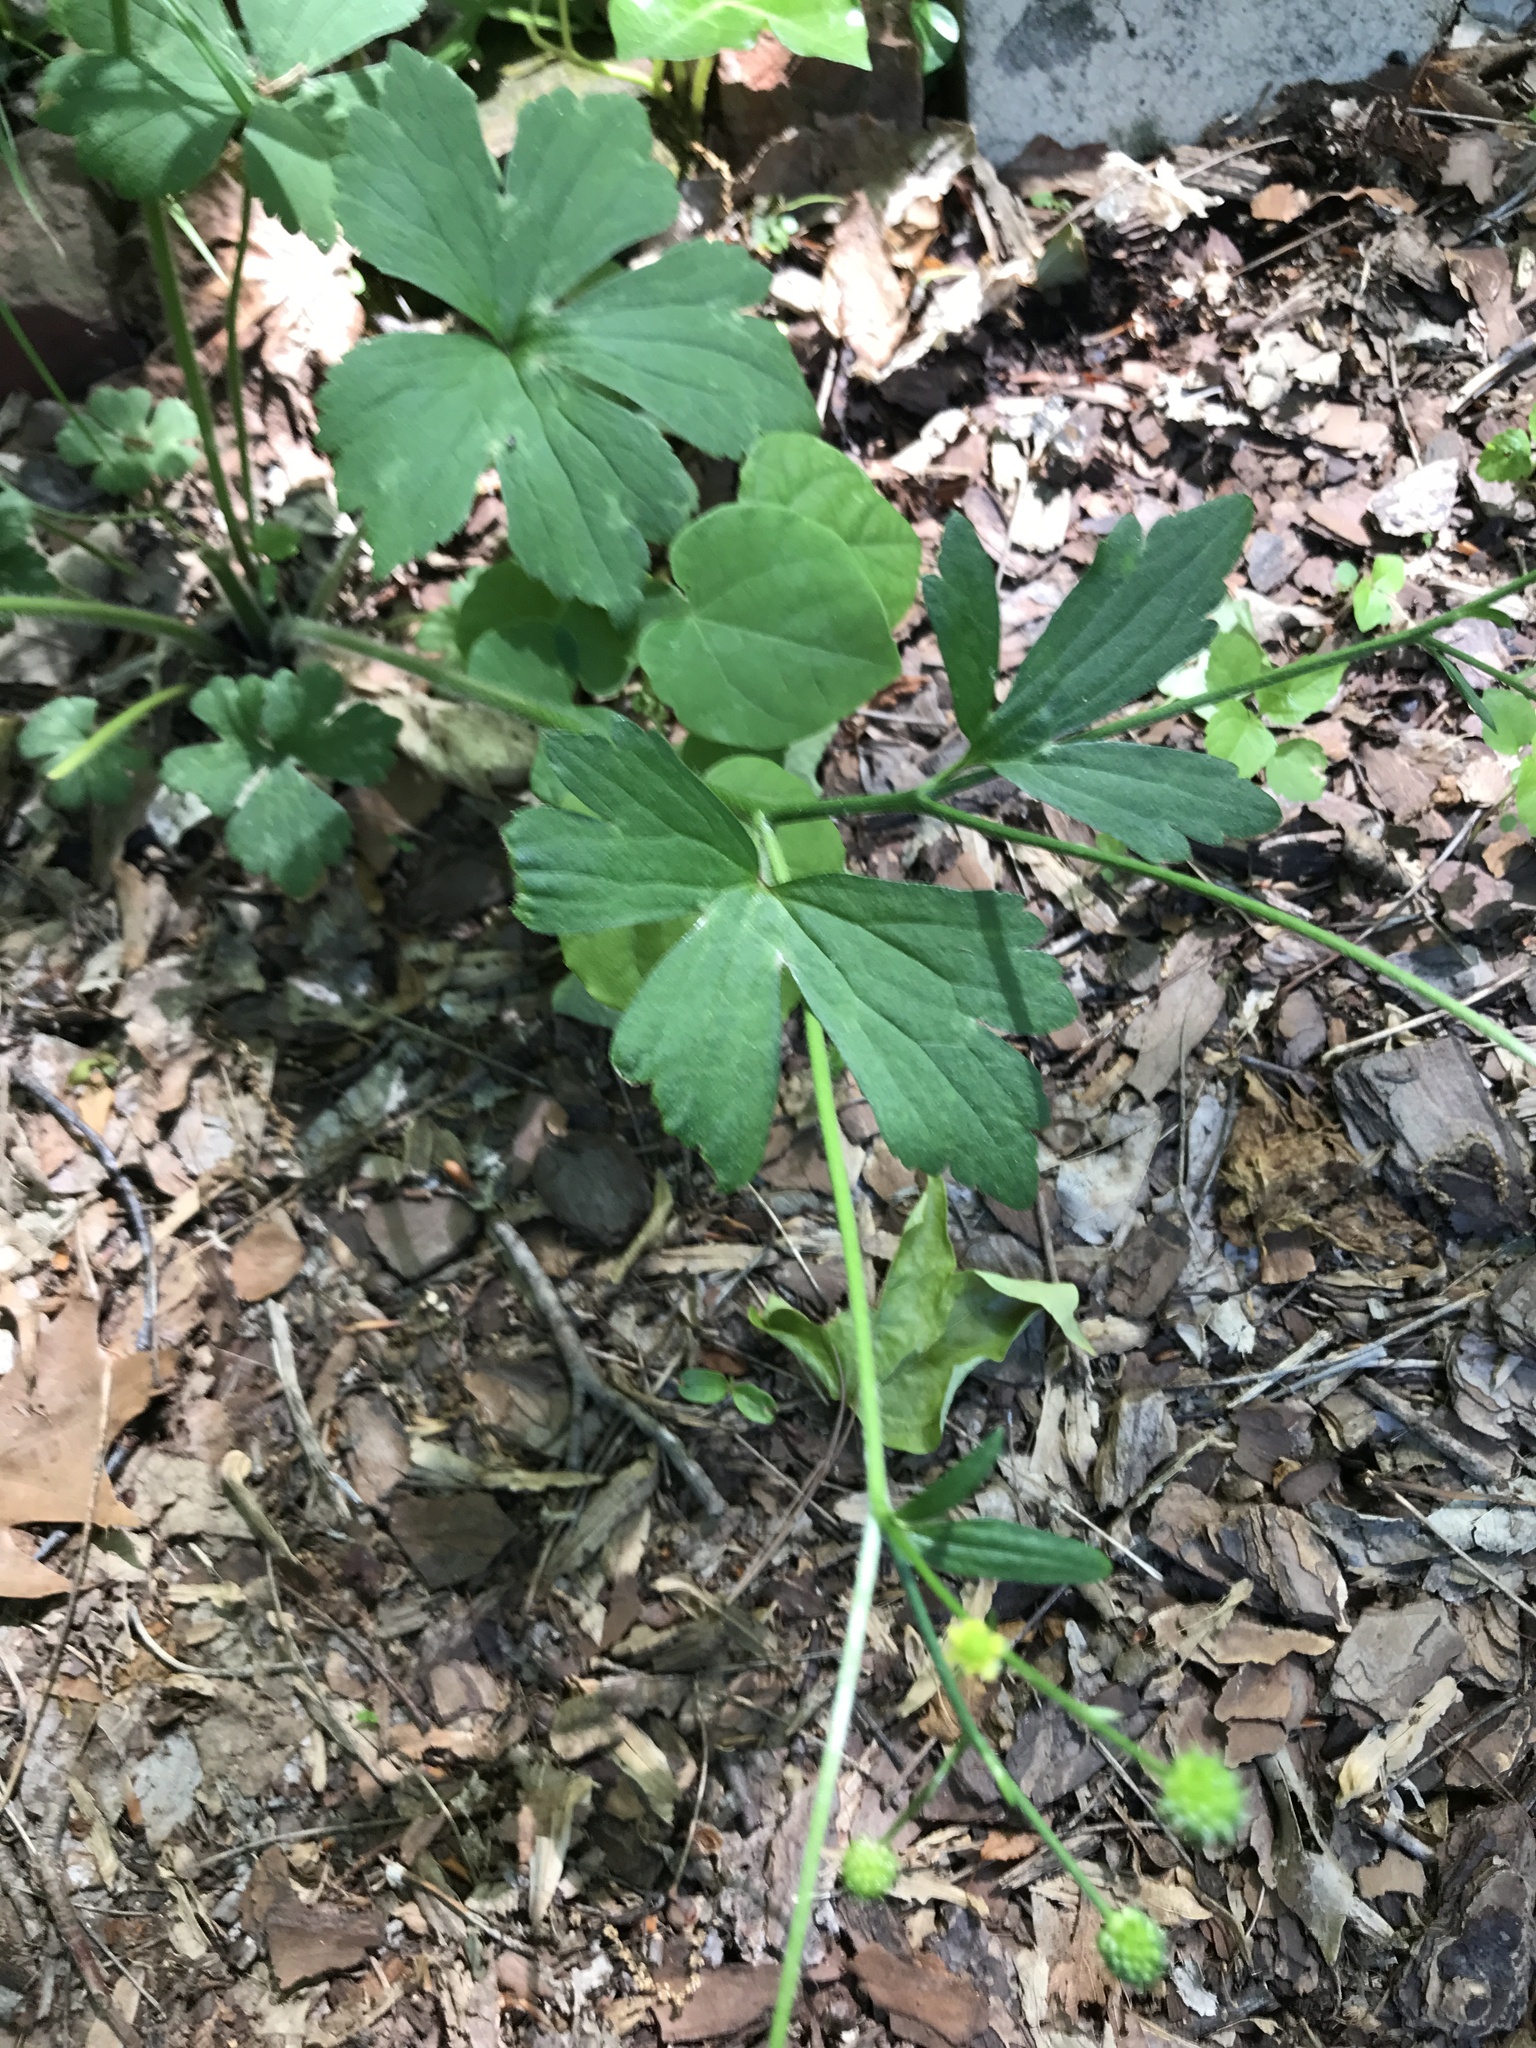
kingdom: Plantae
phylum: Tracheophyta
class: Magnoliopsida
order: Ranunculales
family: Ranunculaceae
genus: Ranunculus
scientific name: Ranunculus recurvatus
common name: Blisterwort
